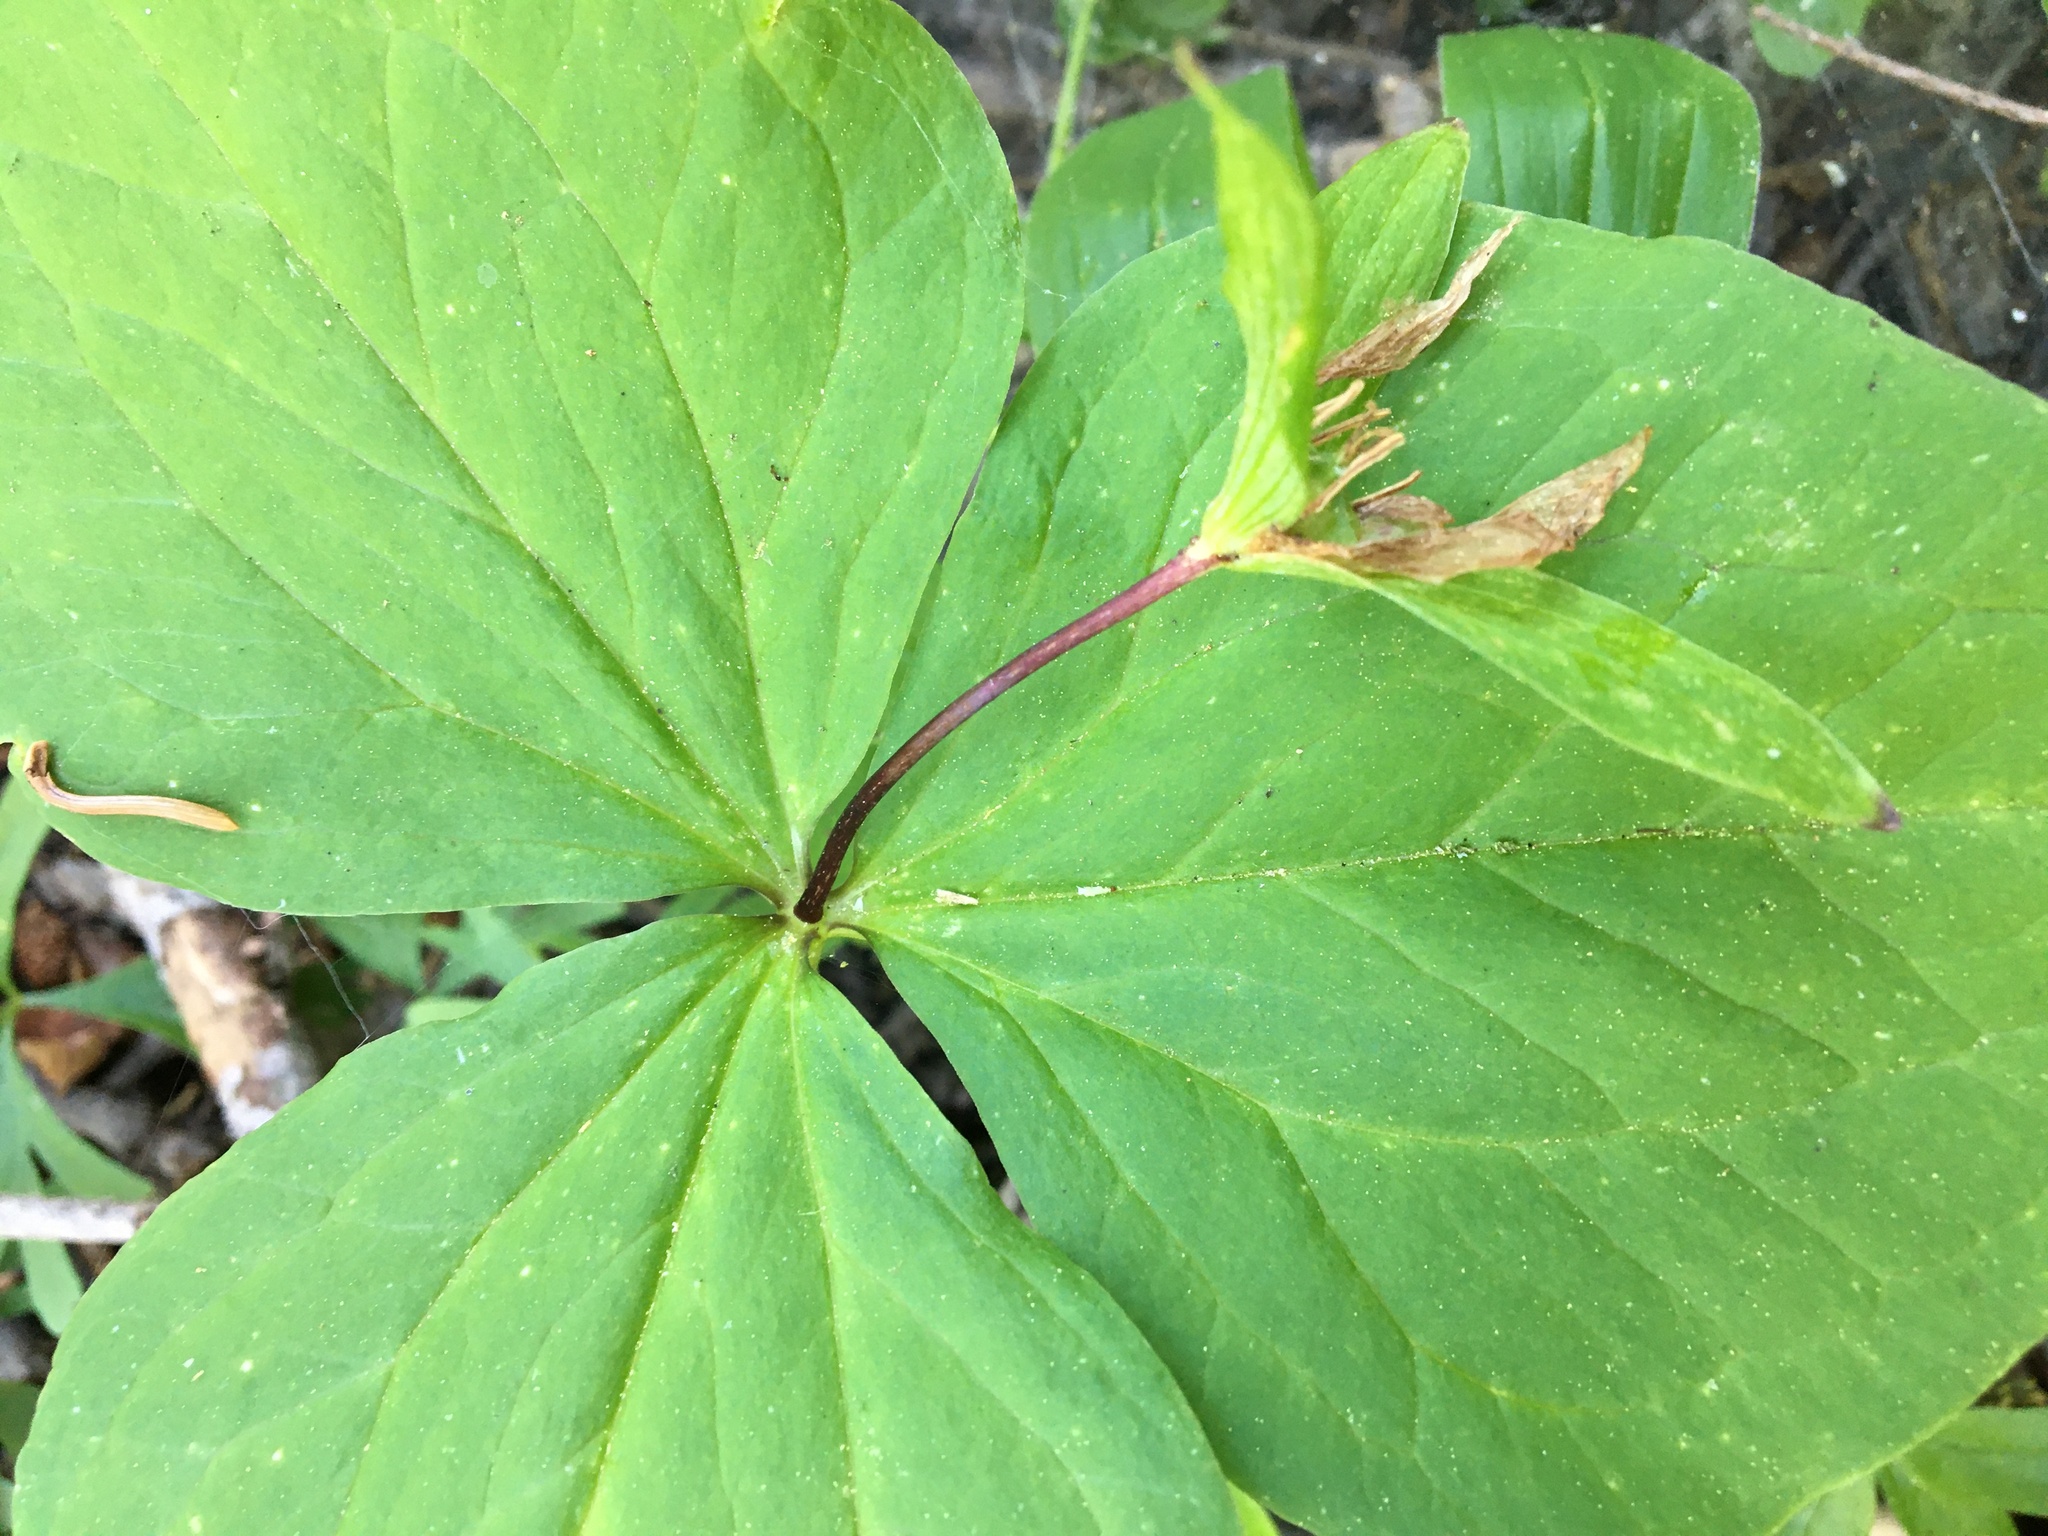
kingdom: Plantae
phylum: Tracheophyta
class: Liliopsida
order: Liliales
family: Melanthiaceae
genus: Trillium
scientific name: Trillium ovatum
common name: Pacific trillium
